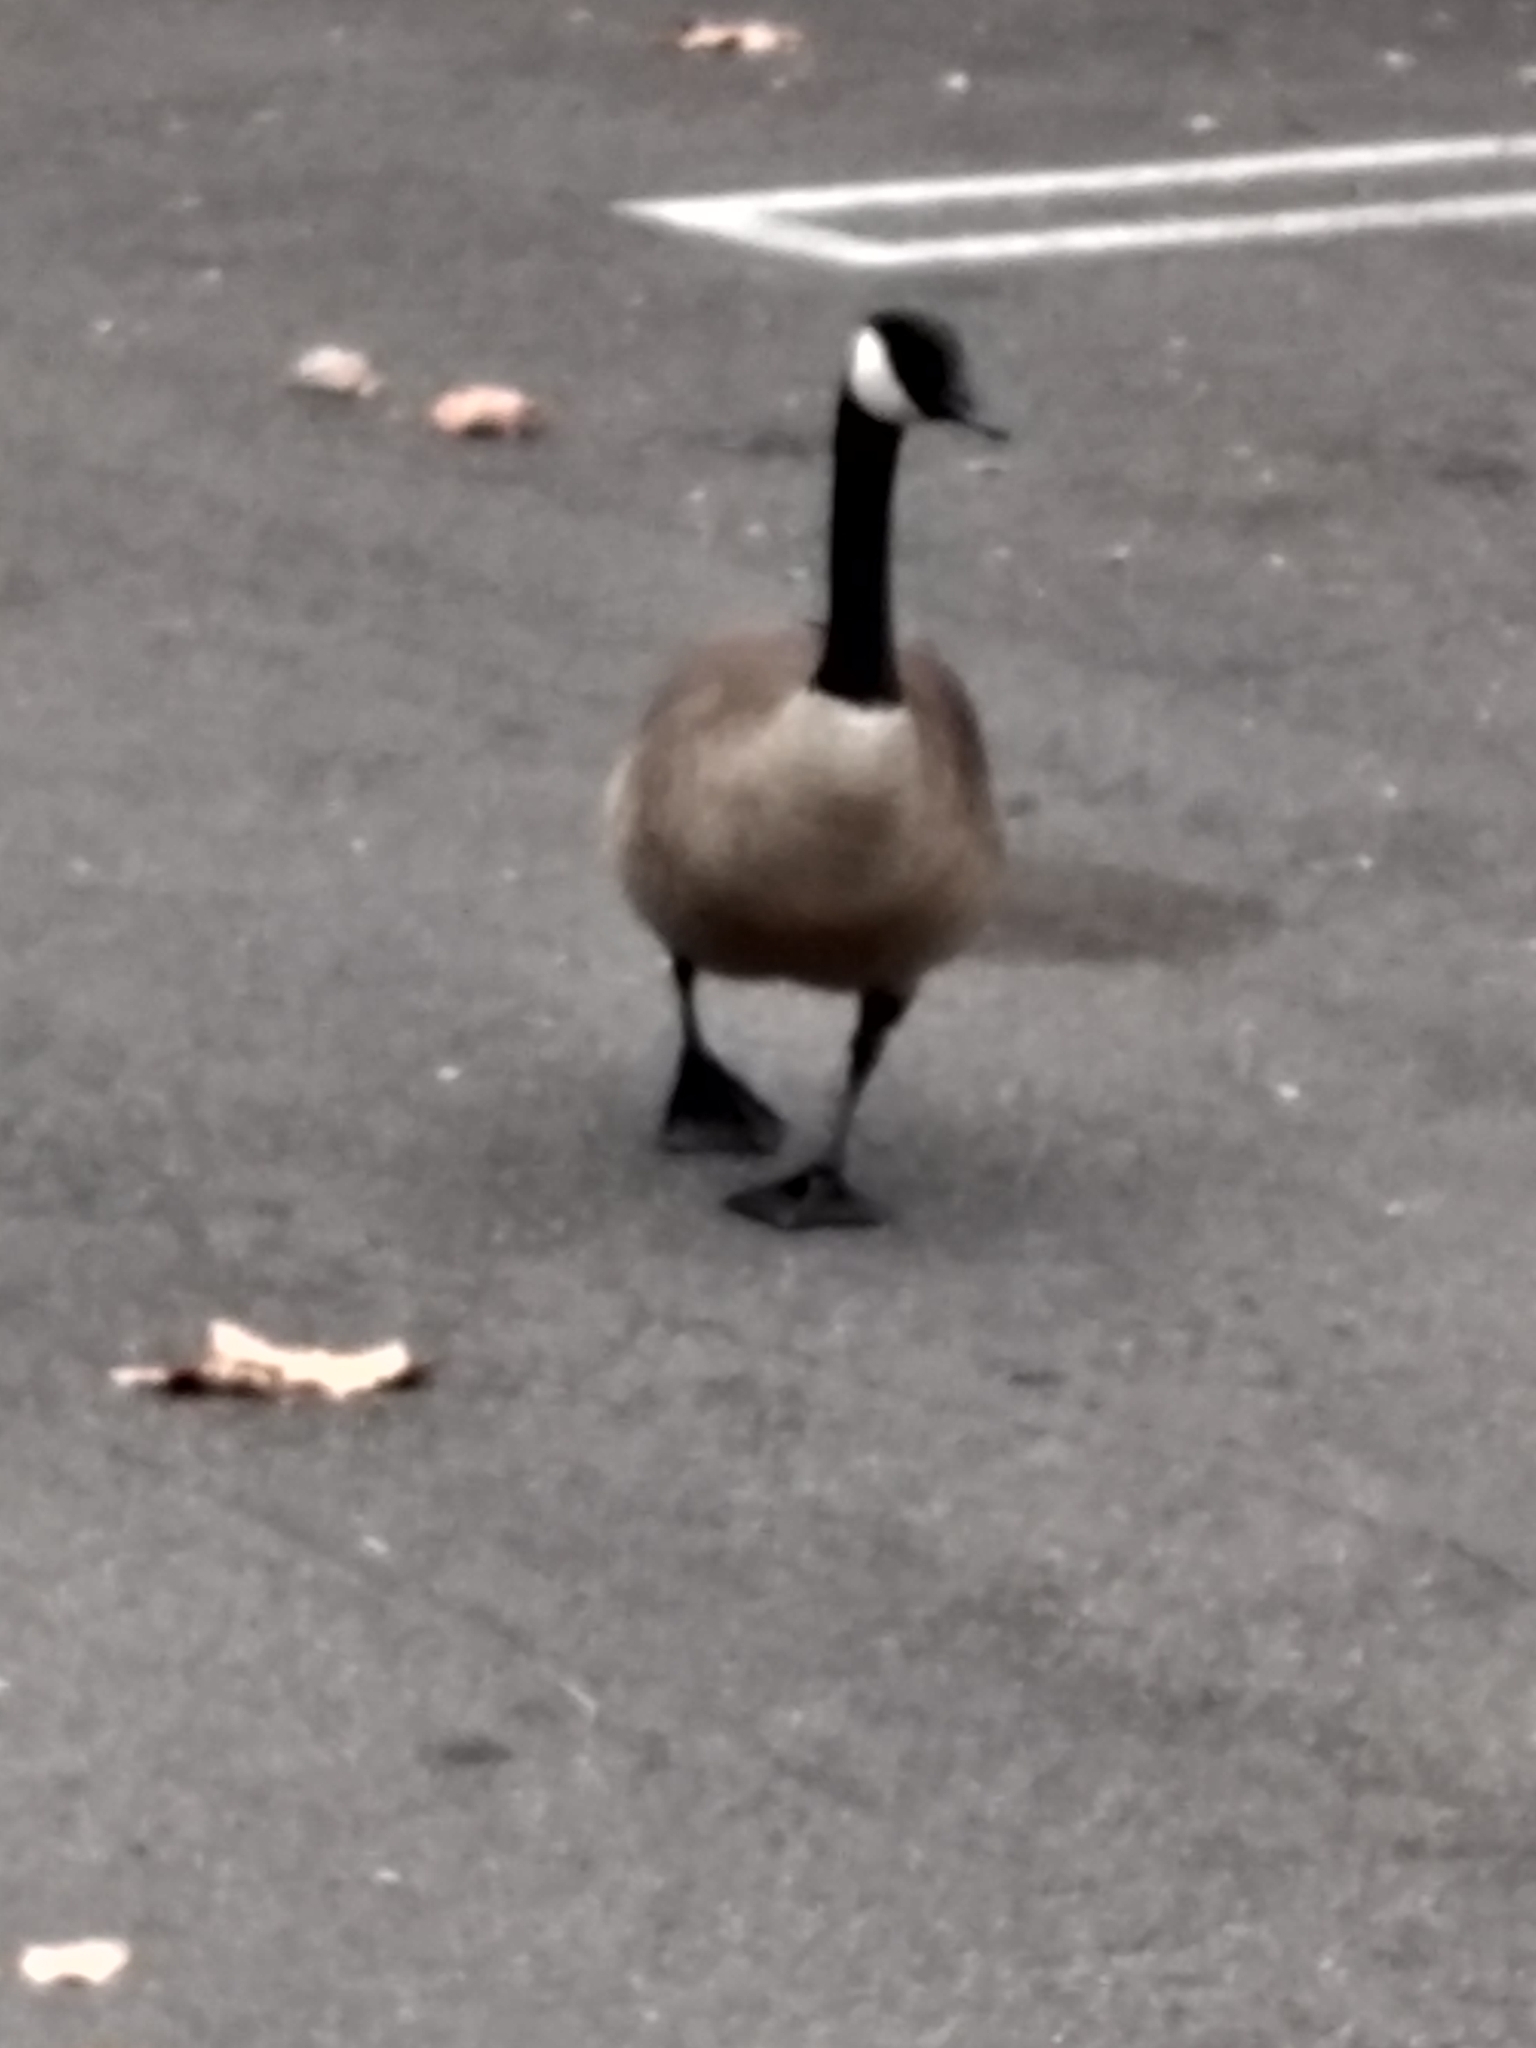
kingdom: Animalia
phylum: Chordata
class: Aves
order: Anseriformes
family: Anatidae
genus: Branta
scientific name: Branta canadensis
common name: Canada goose
